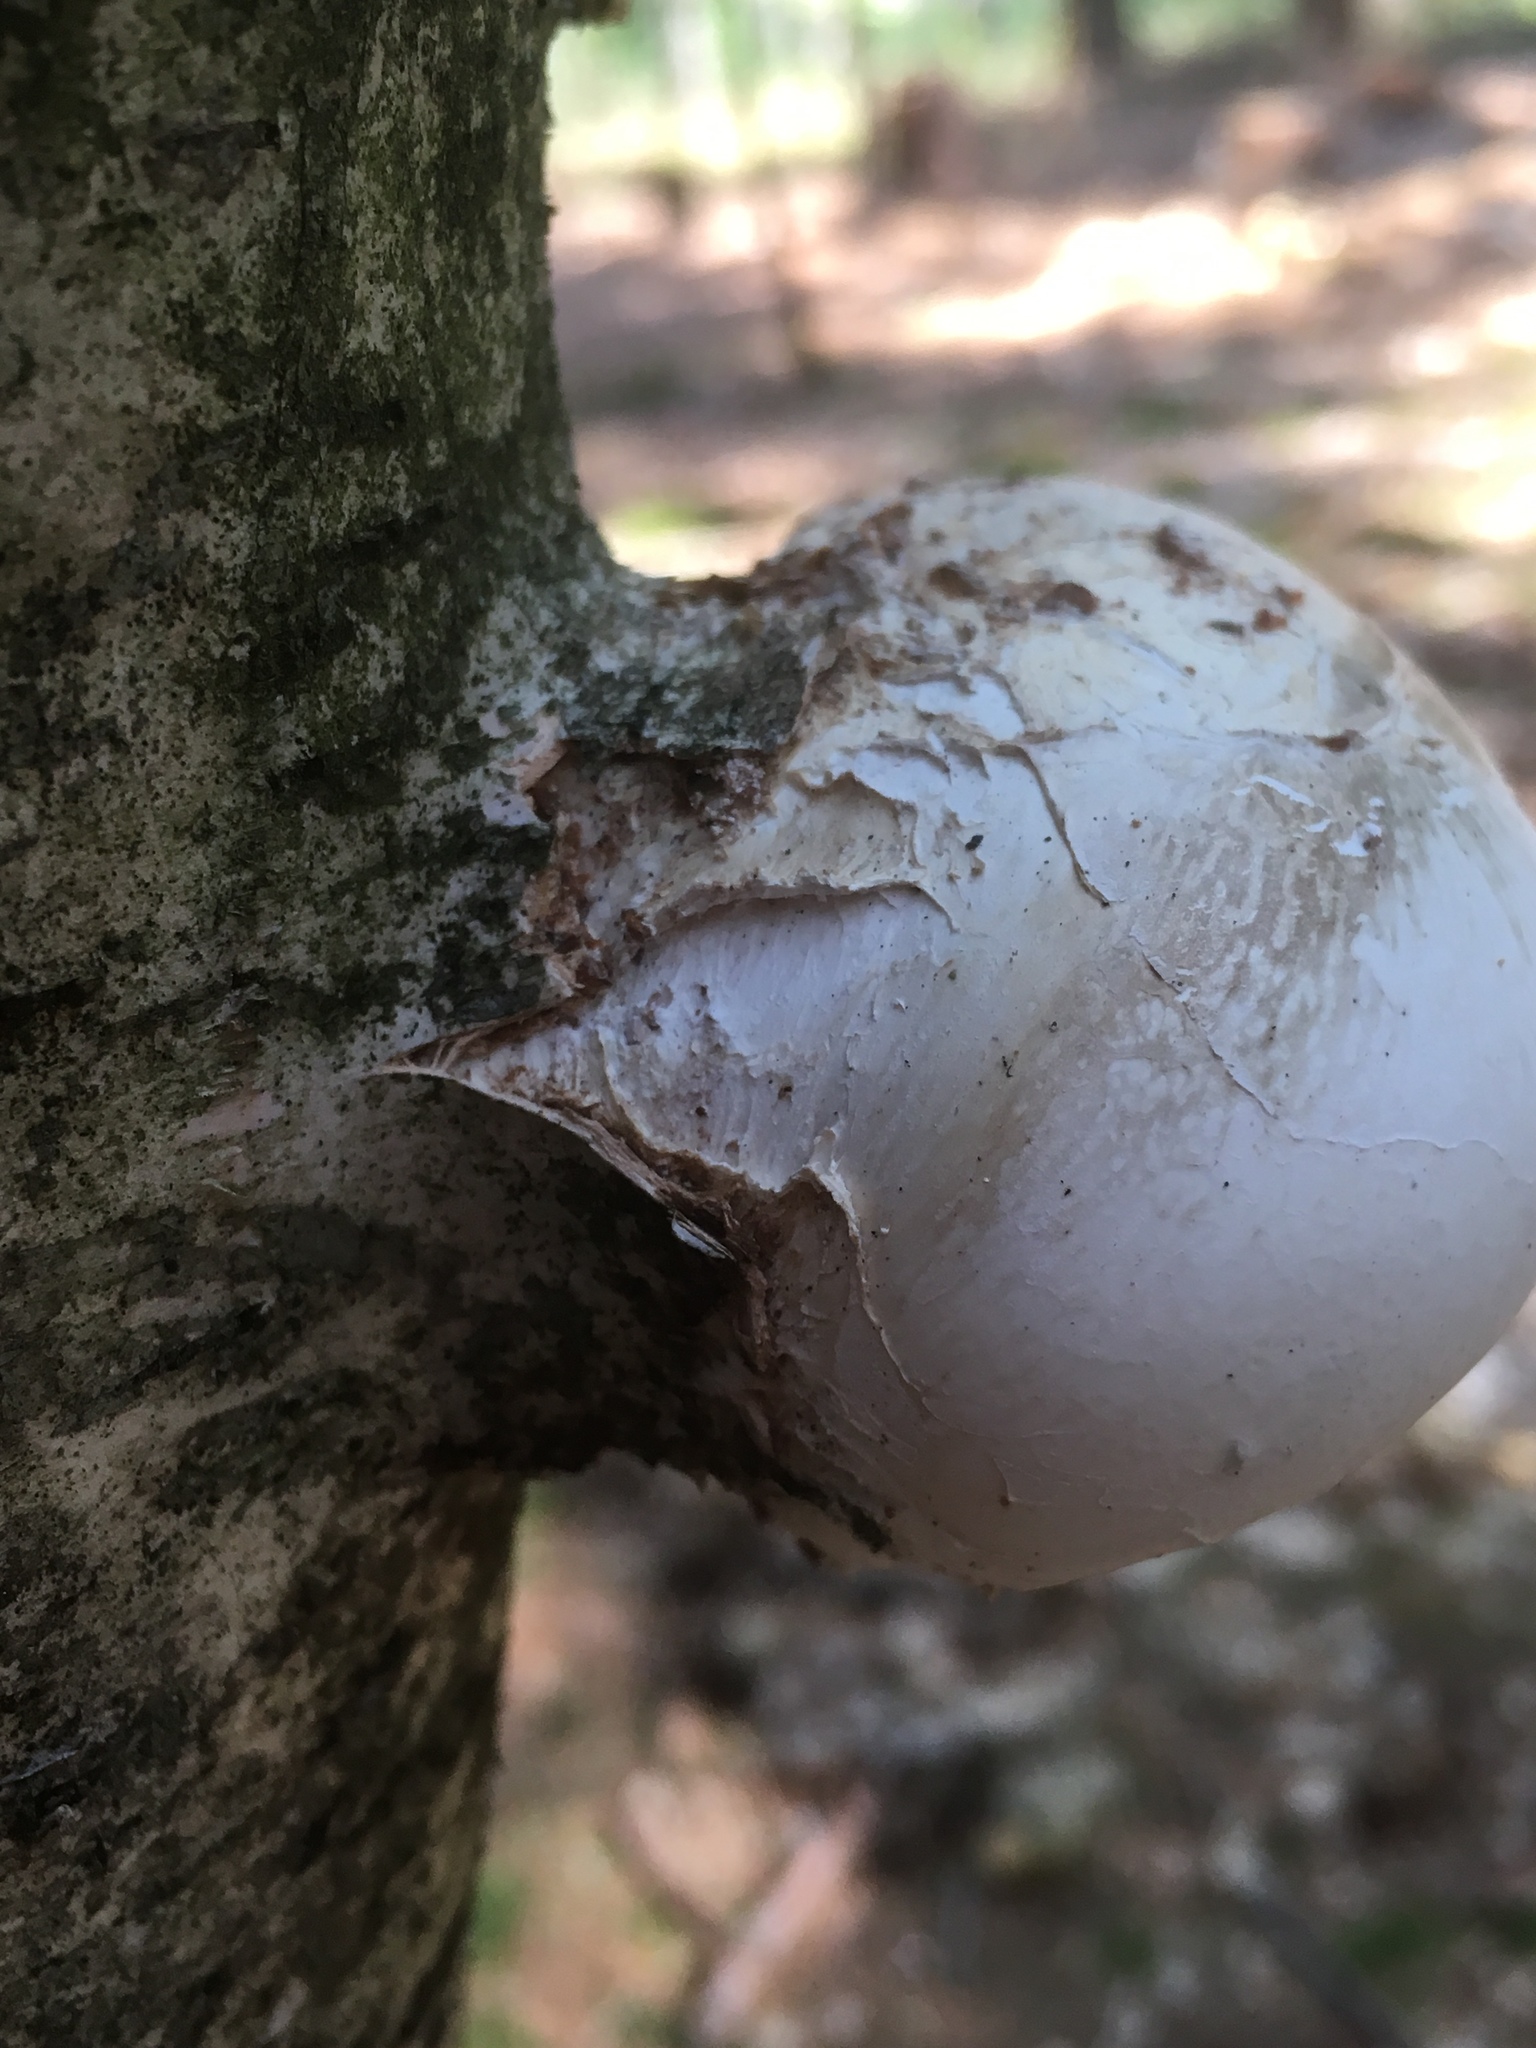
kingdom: Fungi
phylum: Basidiomycota
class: Agaricomycetes
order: Polyporales
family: Fomitopsidaceae
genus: Fomitopsis
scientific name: Fomitopsis betulina
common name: Birch polypore
